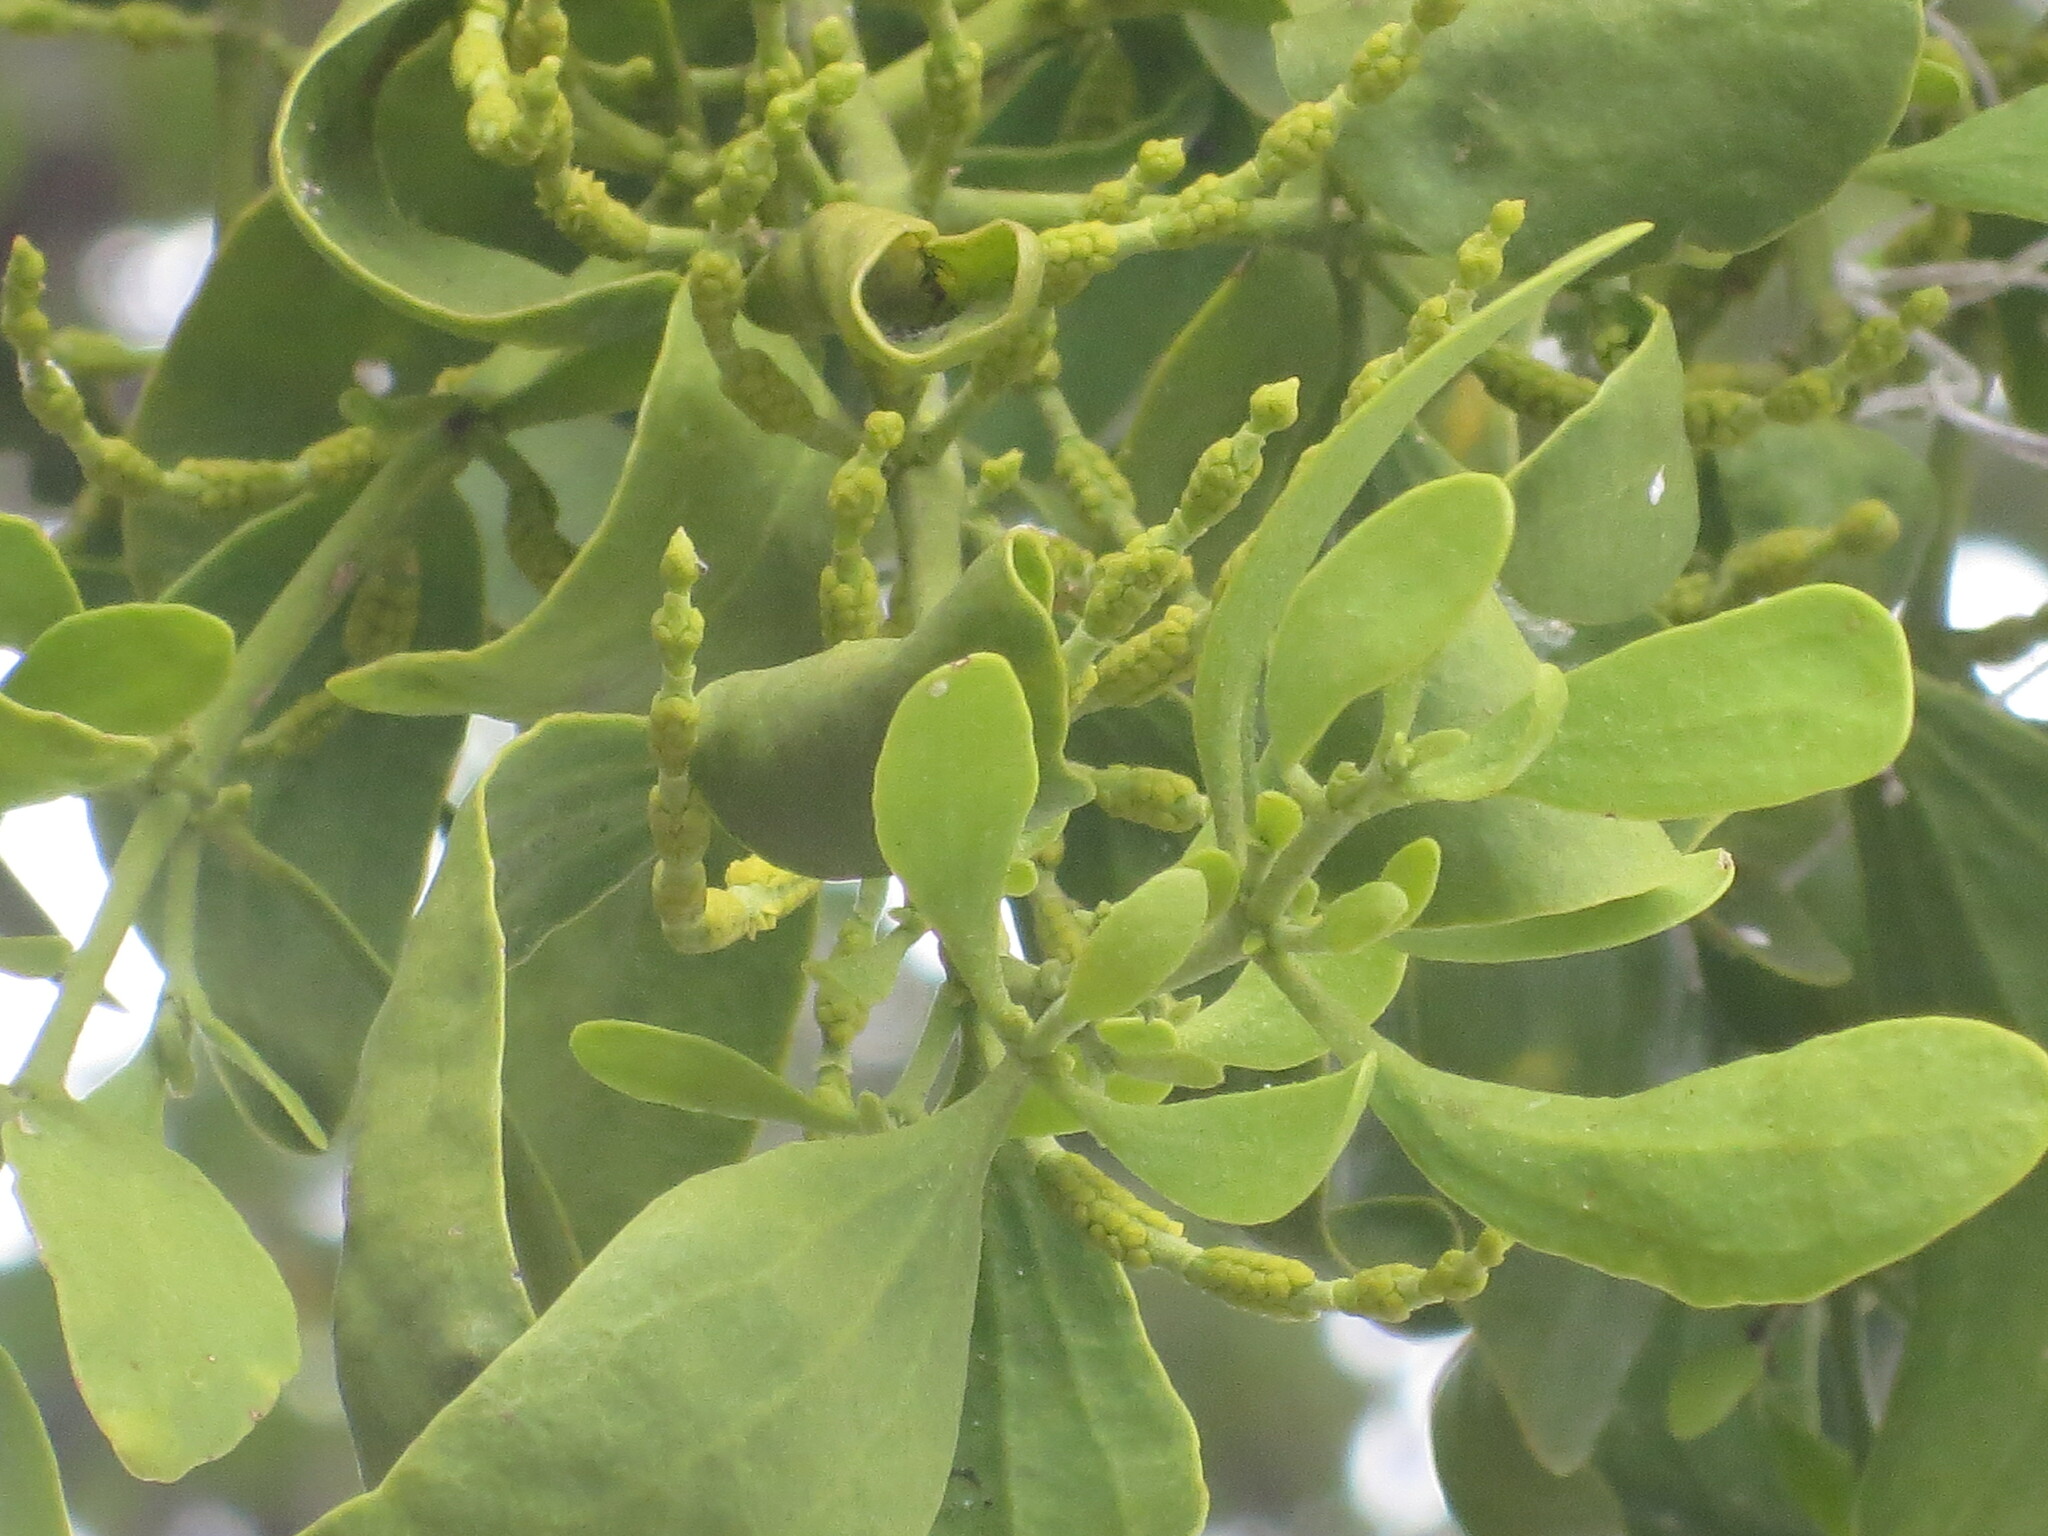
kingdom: Plantae
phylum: Tracheophyta
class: Magnoliopsida
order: Santalales
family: Viscaceae
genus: Phoradendron
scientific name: Phoradendron leucarpum
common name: Pacific mistletoe
